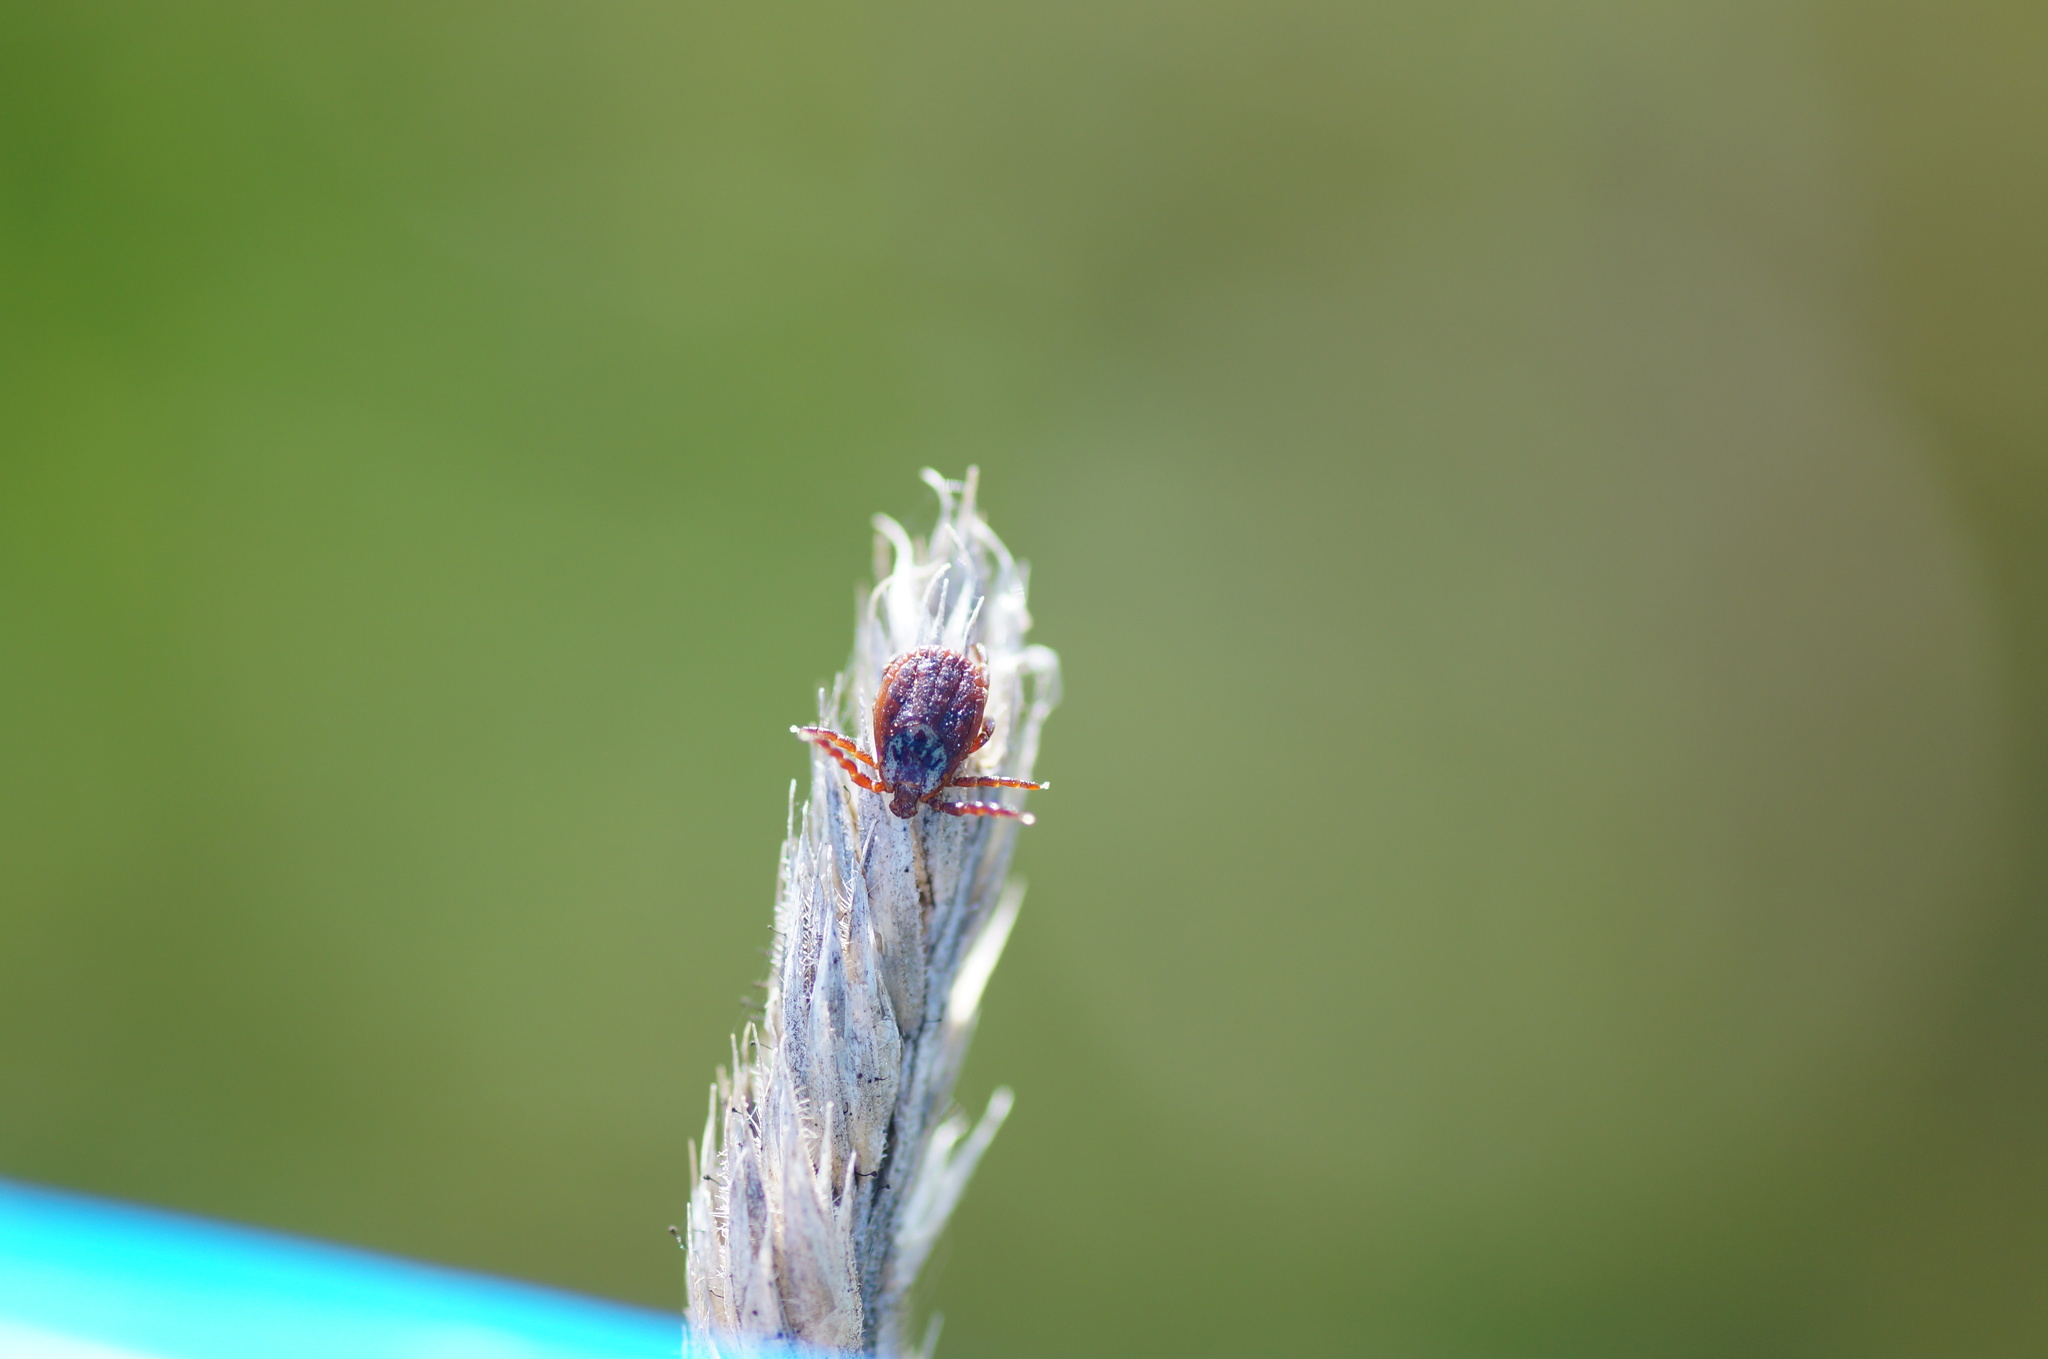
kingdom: Animalia
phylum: Arthropoda
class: Arachnida
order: Ixodida
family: Ixodidae
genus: Dermacentor
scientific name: Dermacentor reticulatus
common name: Ornate cow tick
